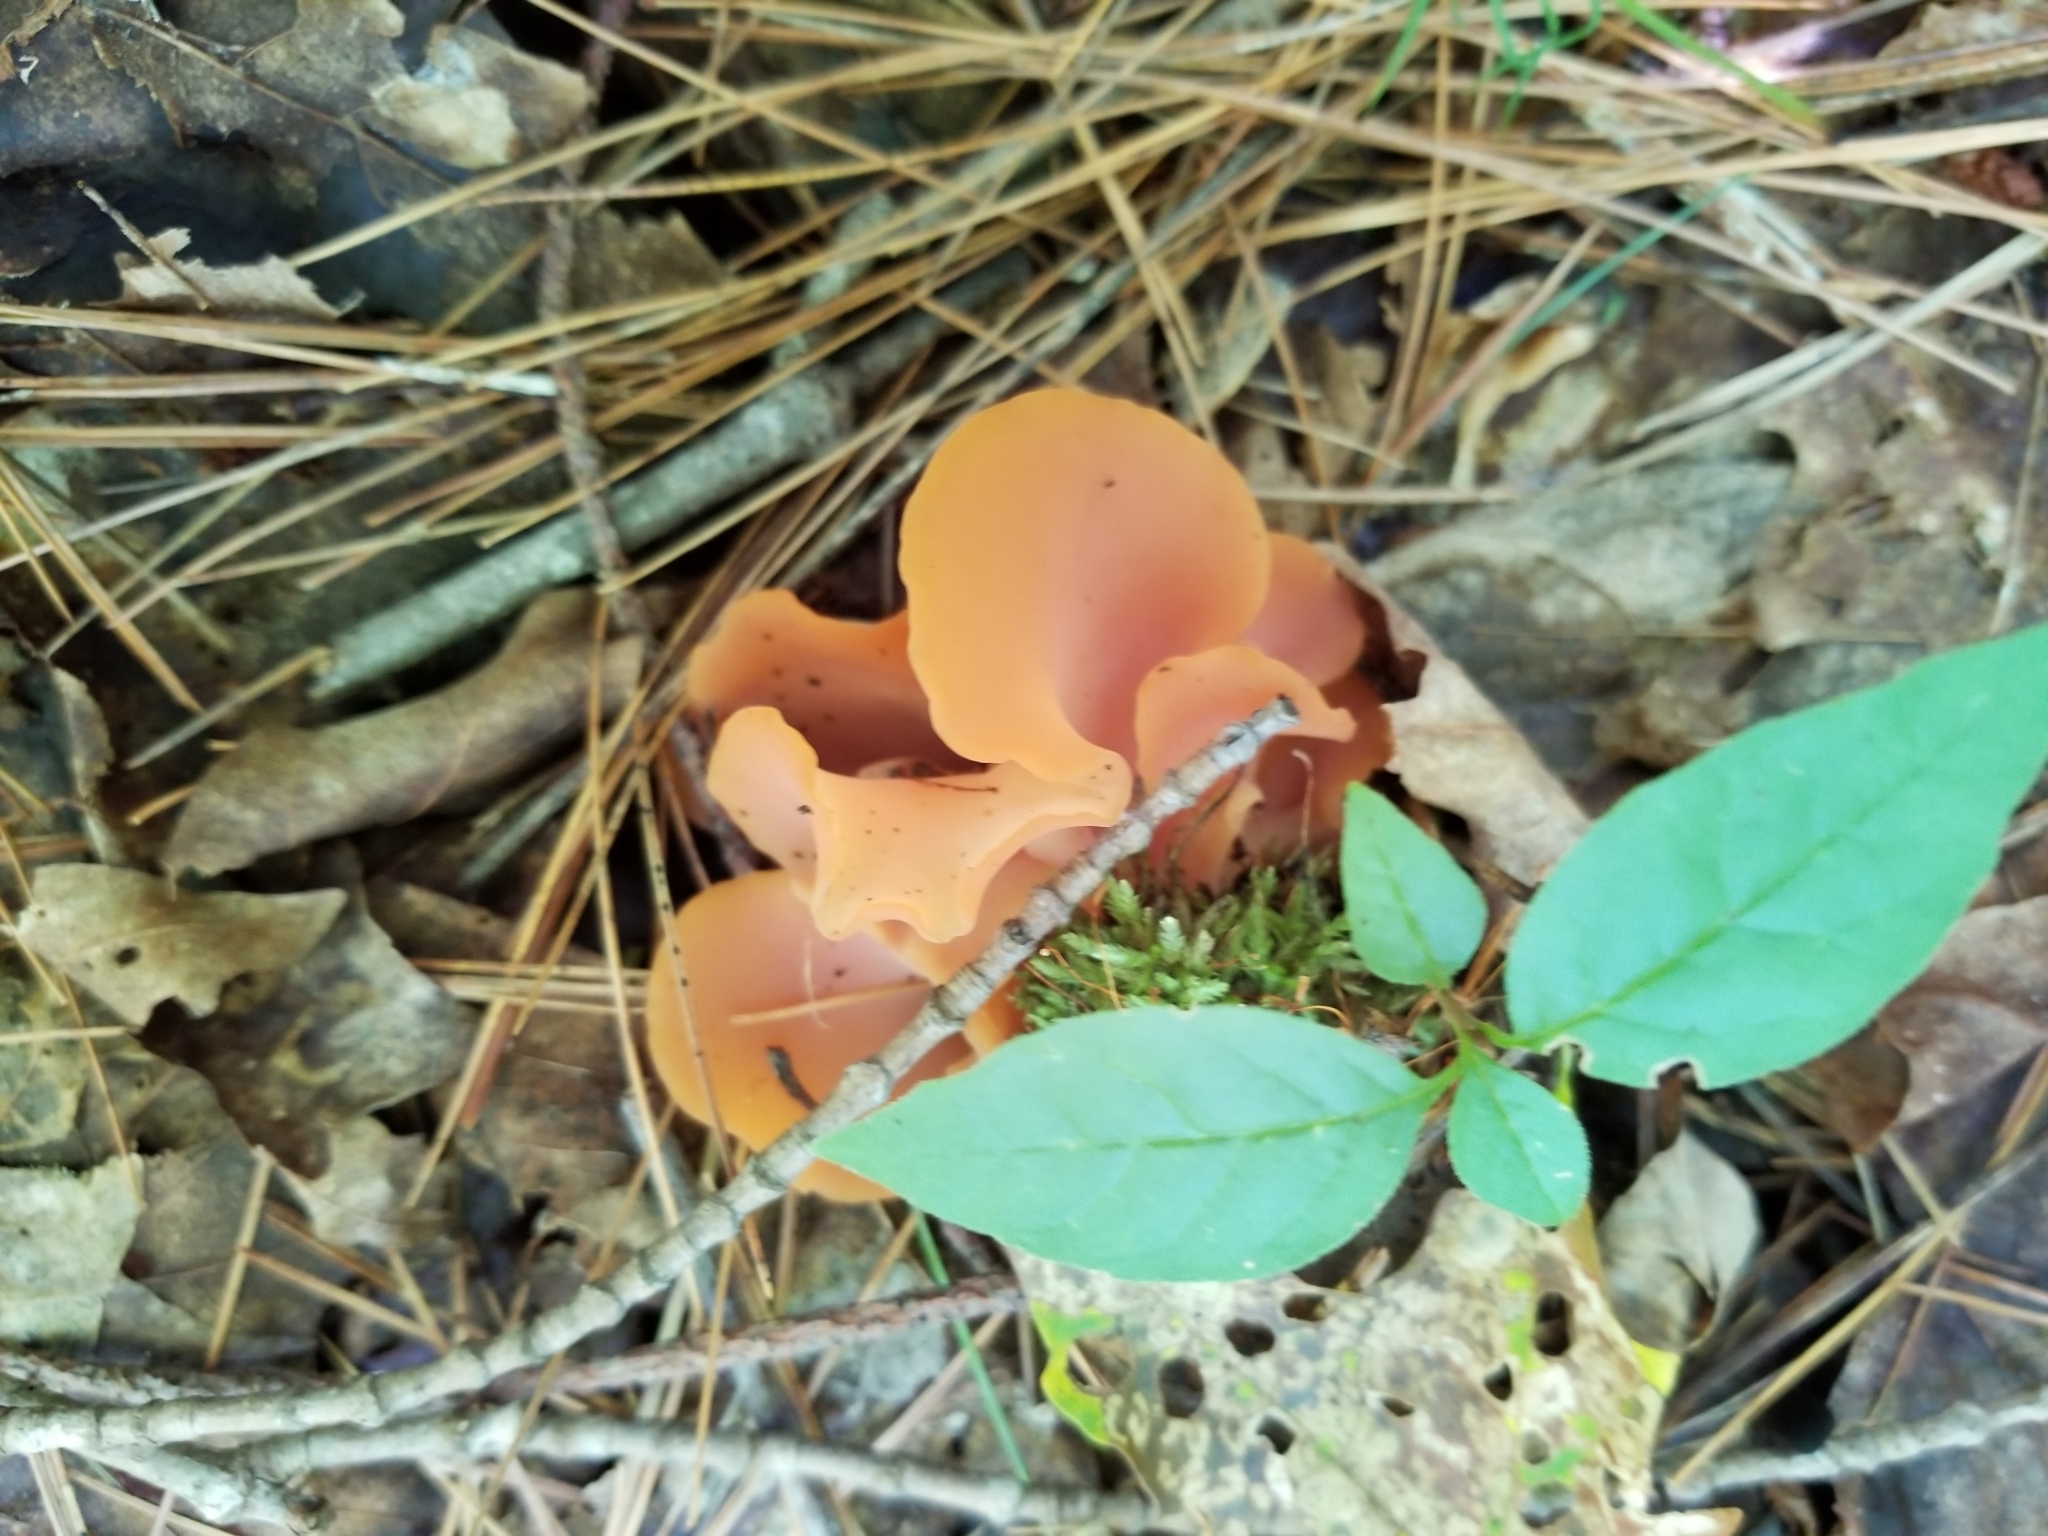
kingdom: Fungi
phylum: Ascomycota
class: Pezizomycetes
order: Pezizales
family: Pyronemataceae
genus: Aleuria
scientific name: Aleuria aurantia
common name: Orange peel fungus
